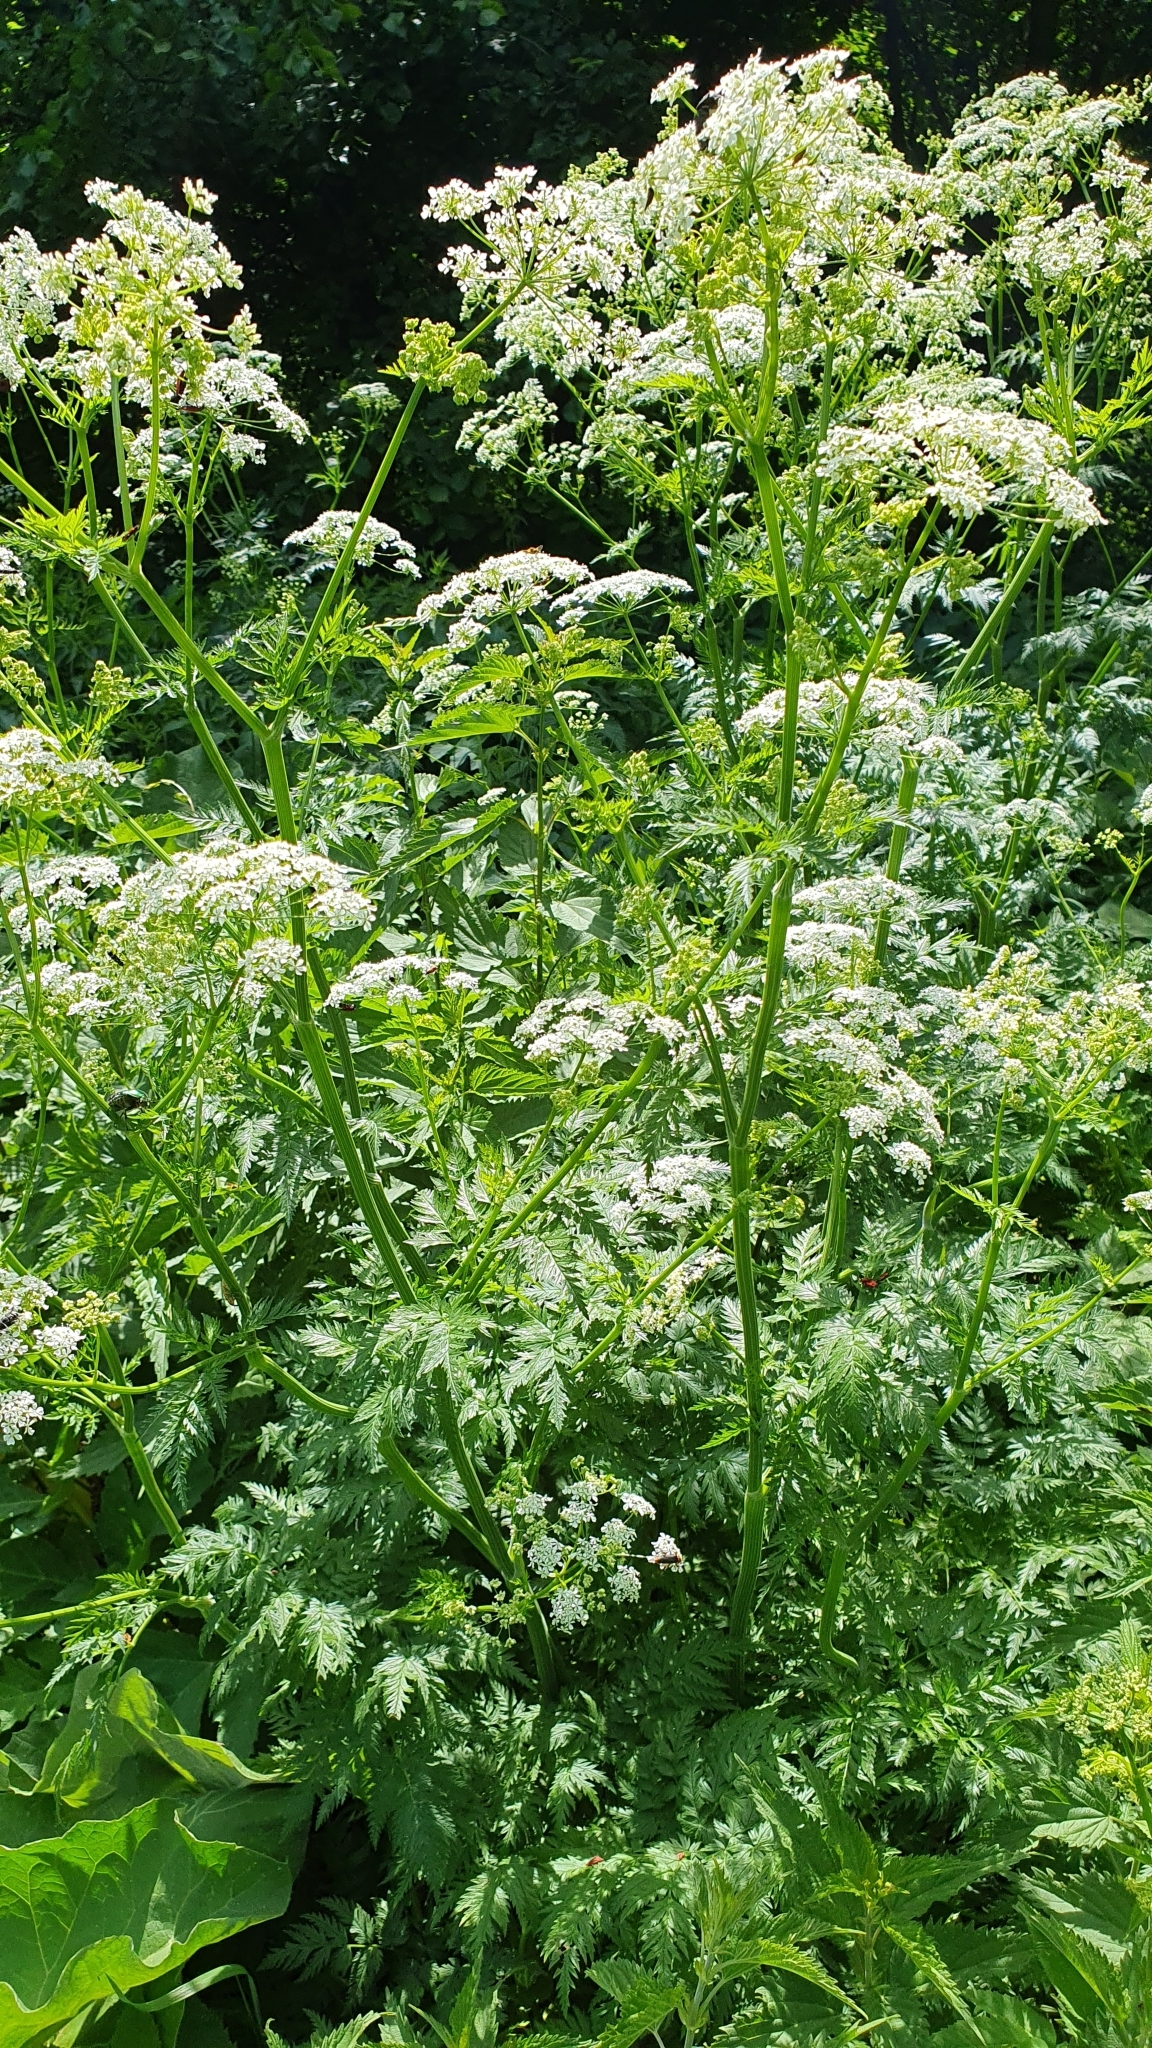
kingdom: Plantae
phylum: Tracheophyta
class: Magnoliopsida
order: Apiales
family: Apiaceae
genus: Anthriscus
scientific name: Anthriscus sylvestris
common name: Cow parsley
